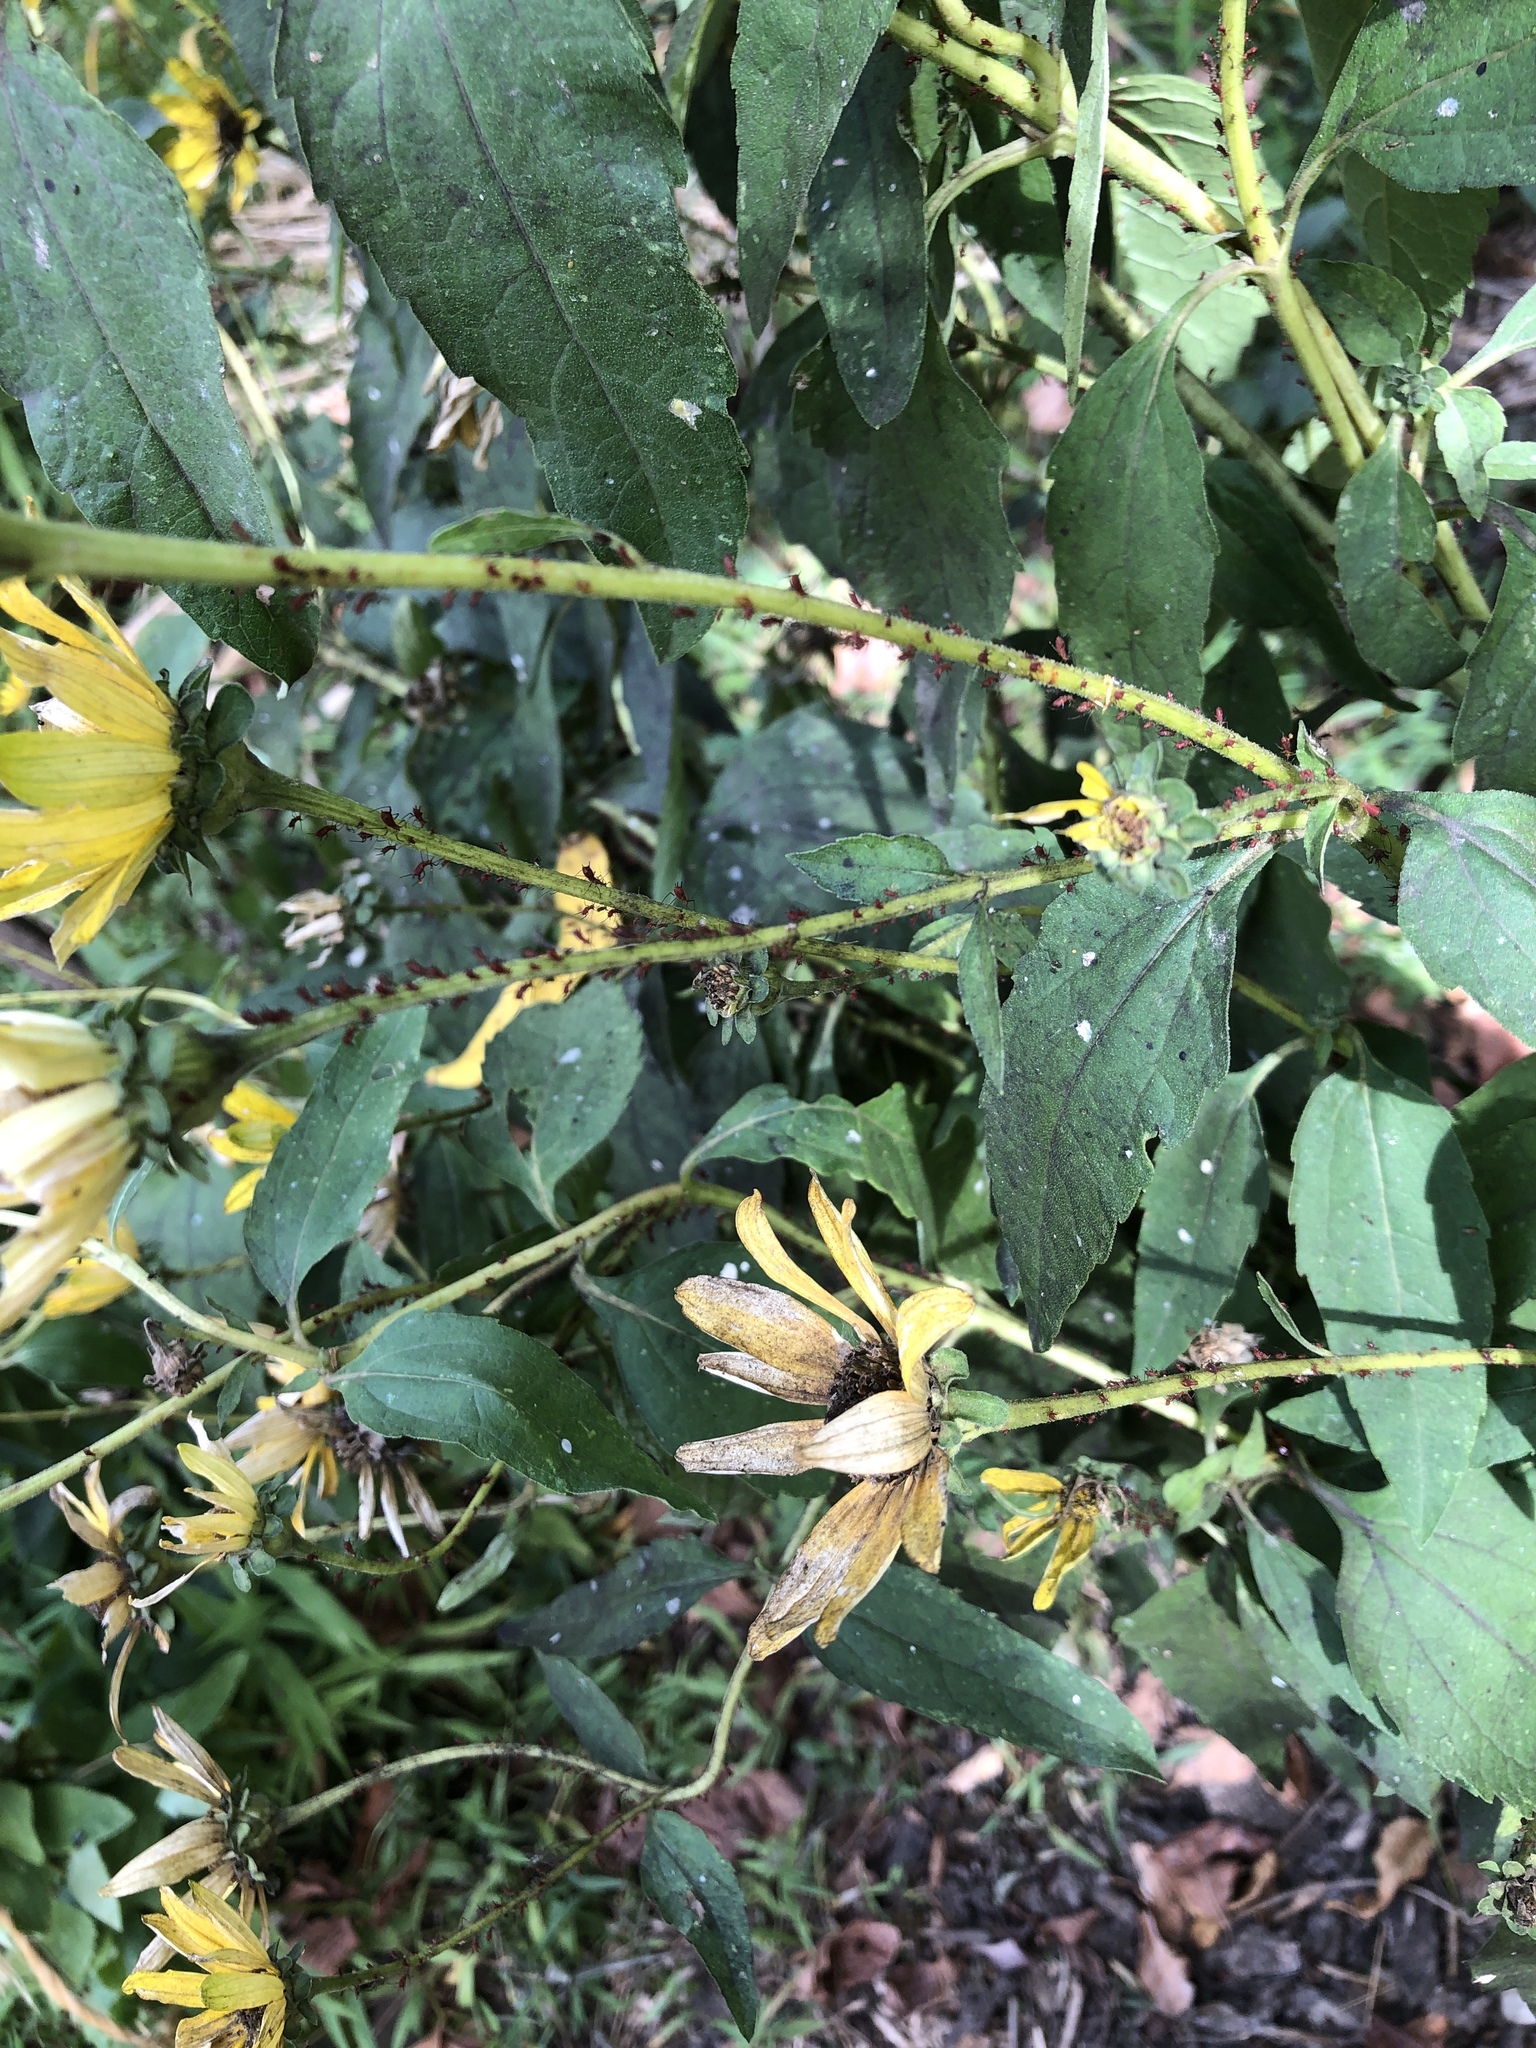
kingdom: Plantae
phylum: Tracheophyta
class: Magnoliopsida
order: Asterales
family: Asteraceae
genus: Heliopsis
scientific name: Heliopsis helianthoides
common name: False sunflower
